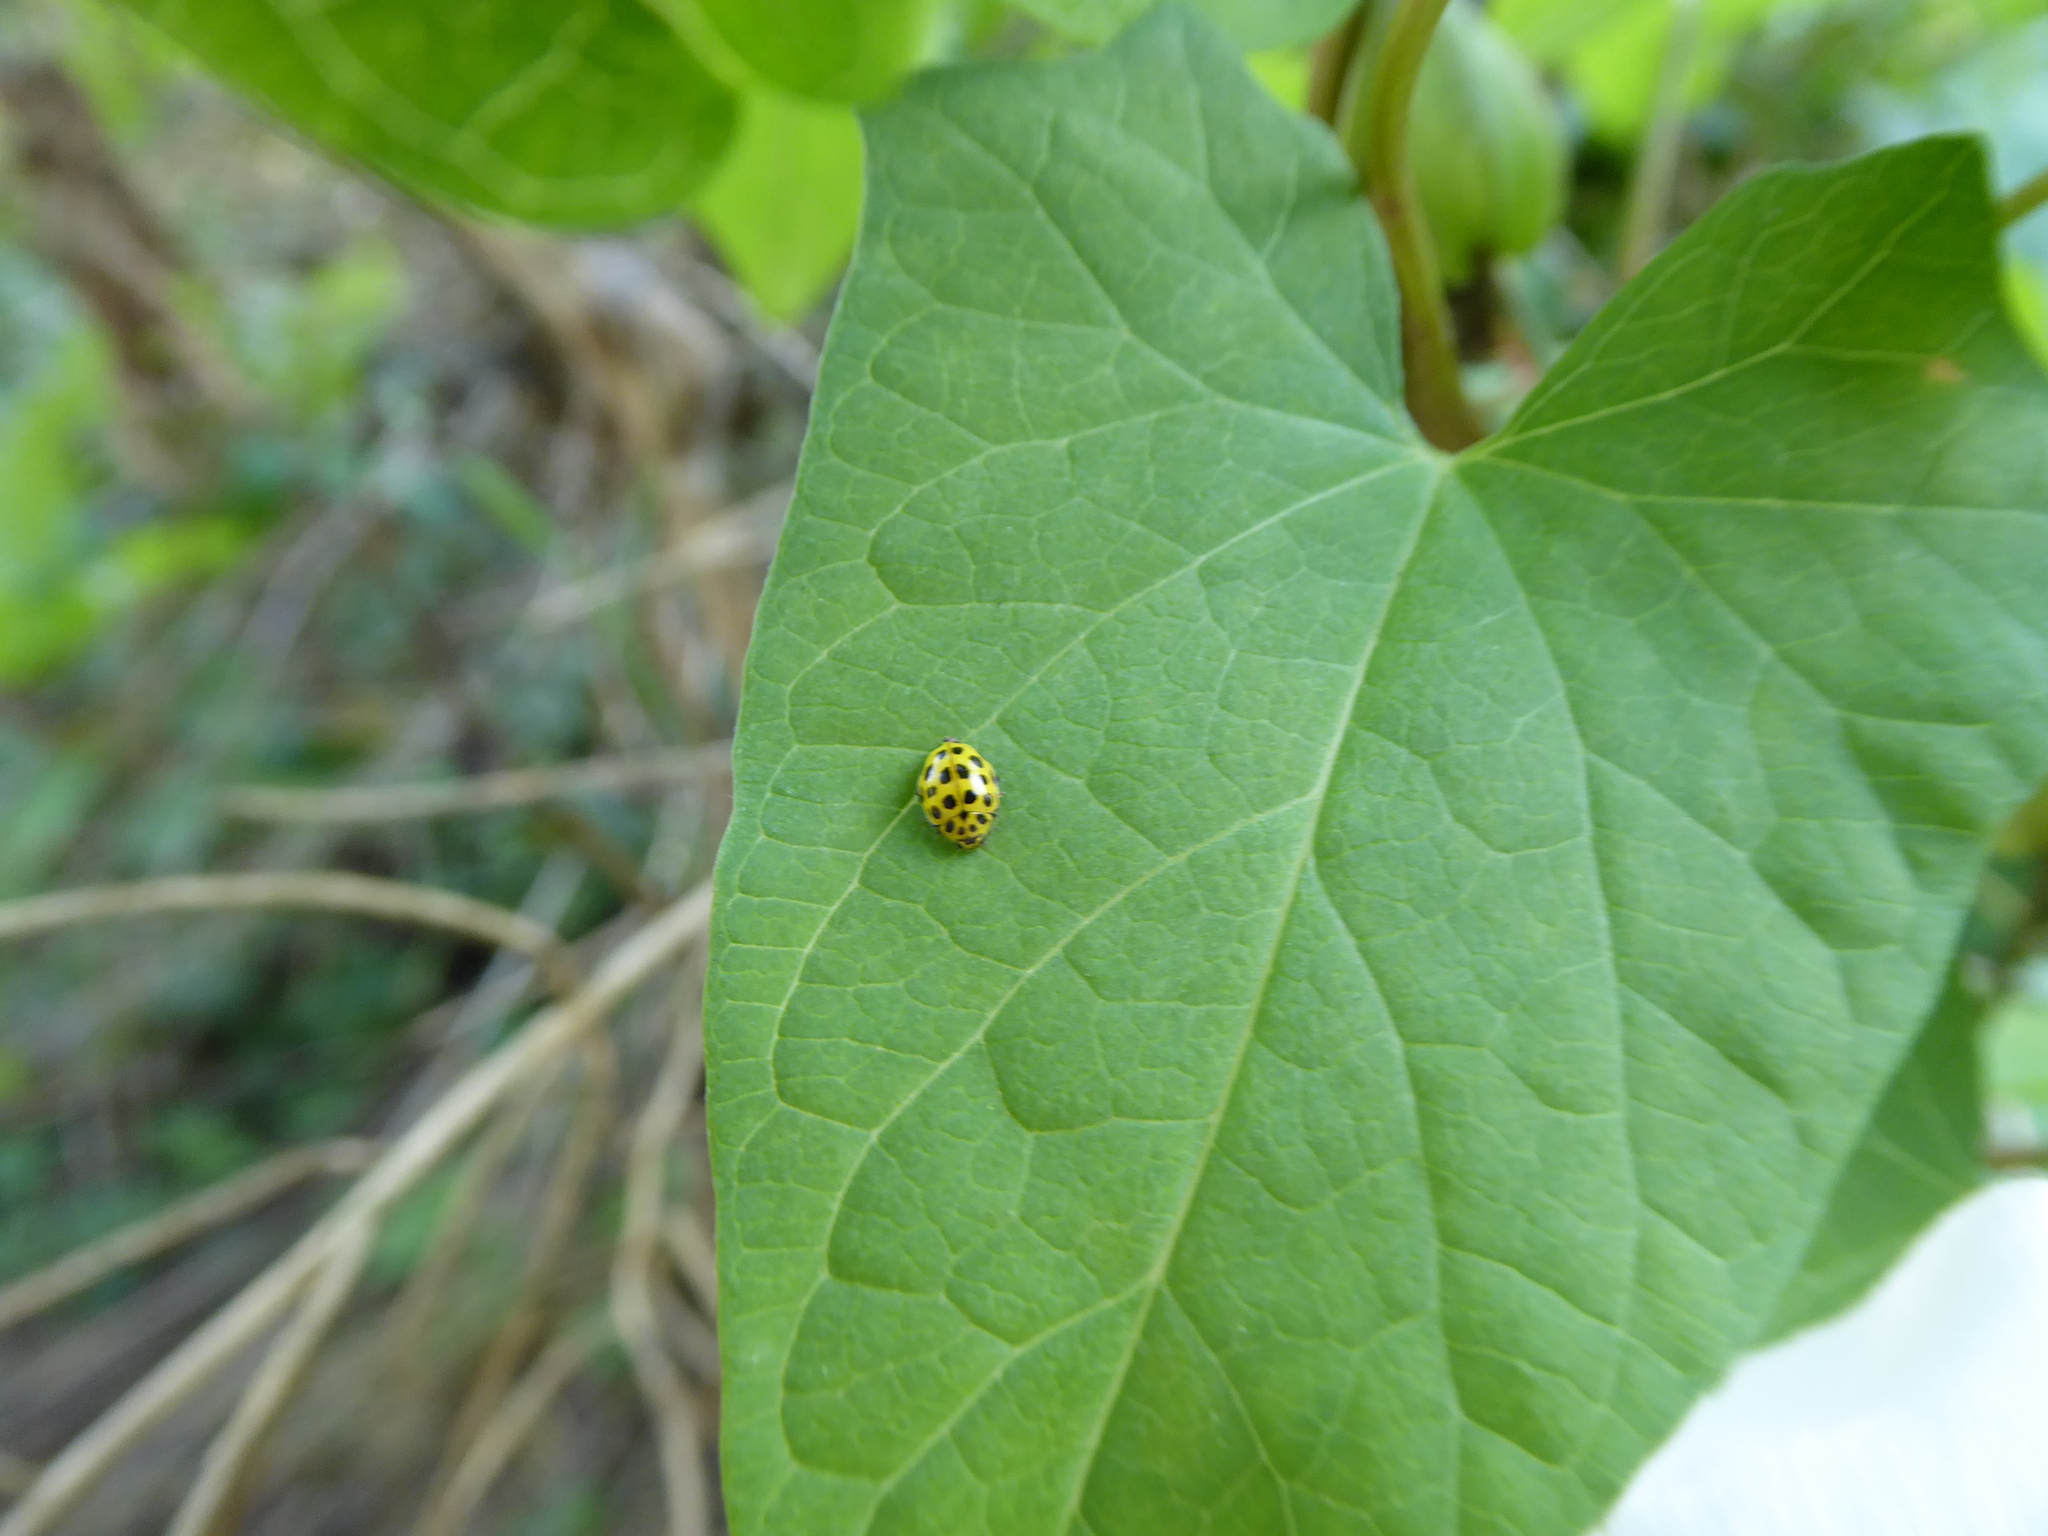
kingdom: Animalia
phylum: Arthropoda
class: Insecta
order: Coleoptera
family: Coccinellidae
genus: Psyllobora
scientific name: Psyllobora vigintiduopunctata
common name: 22-spot ladybird
